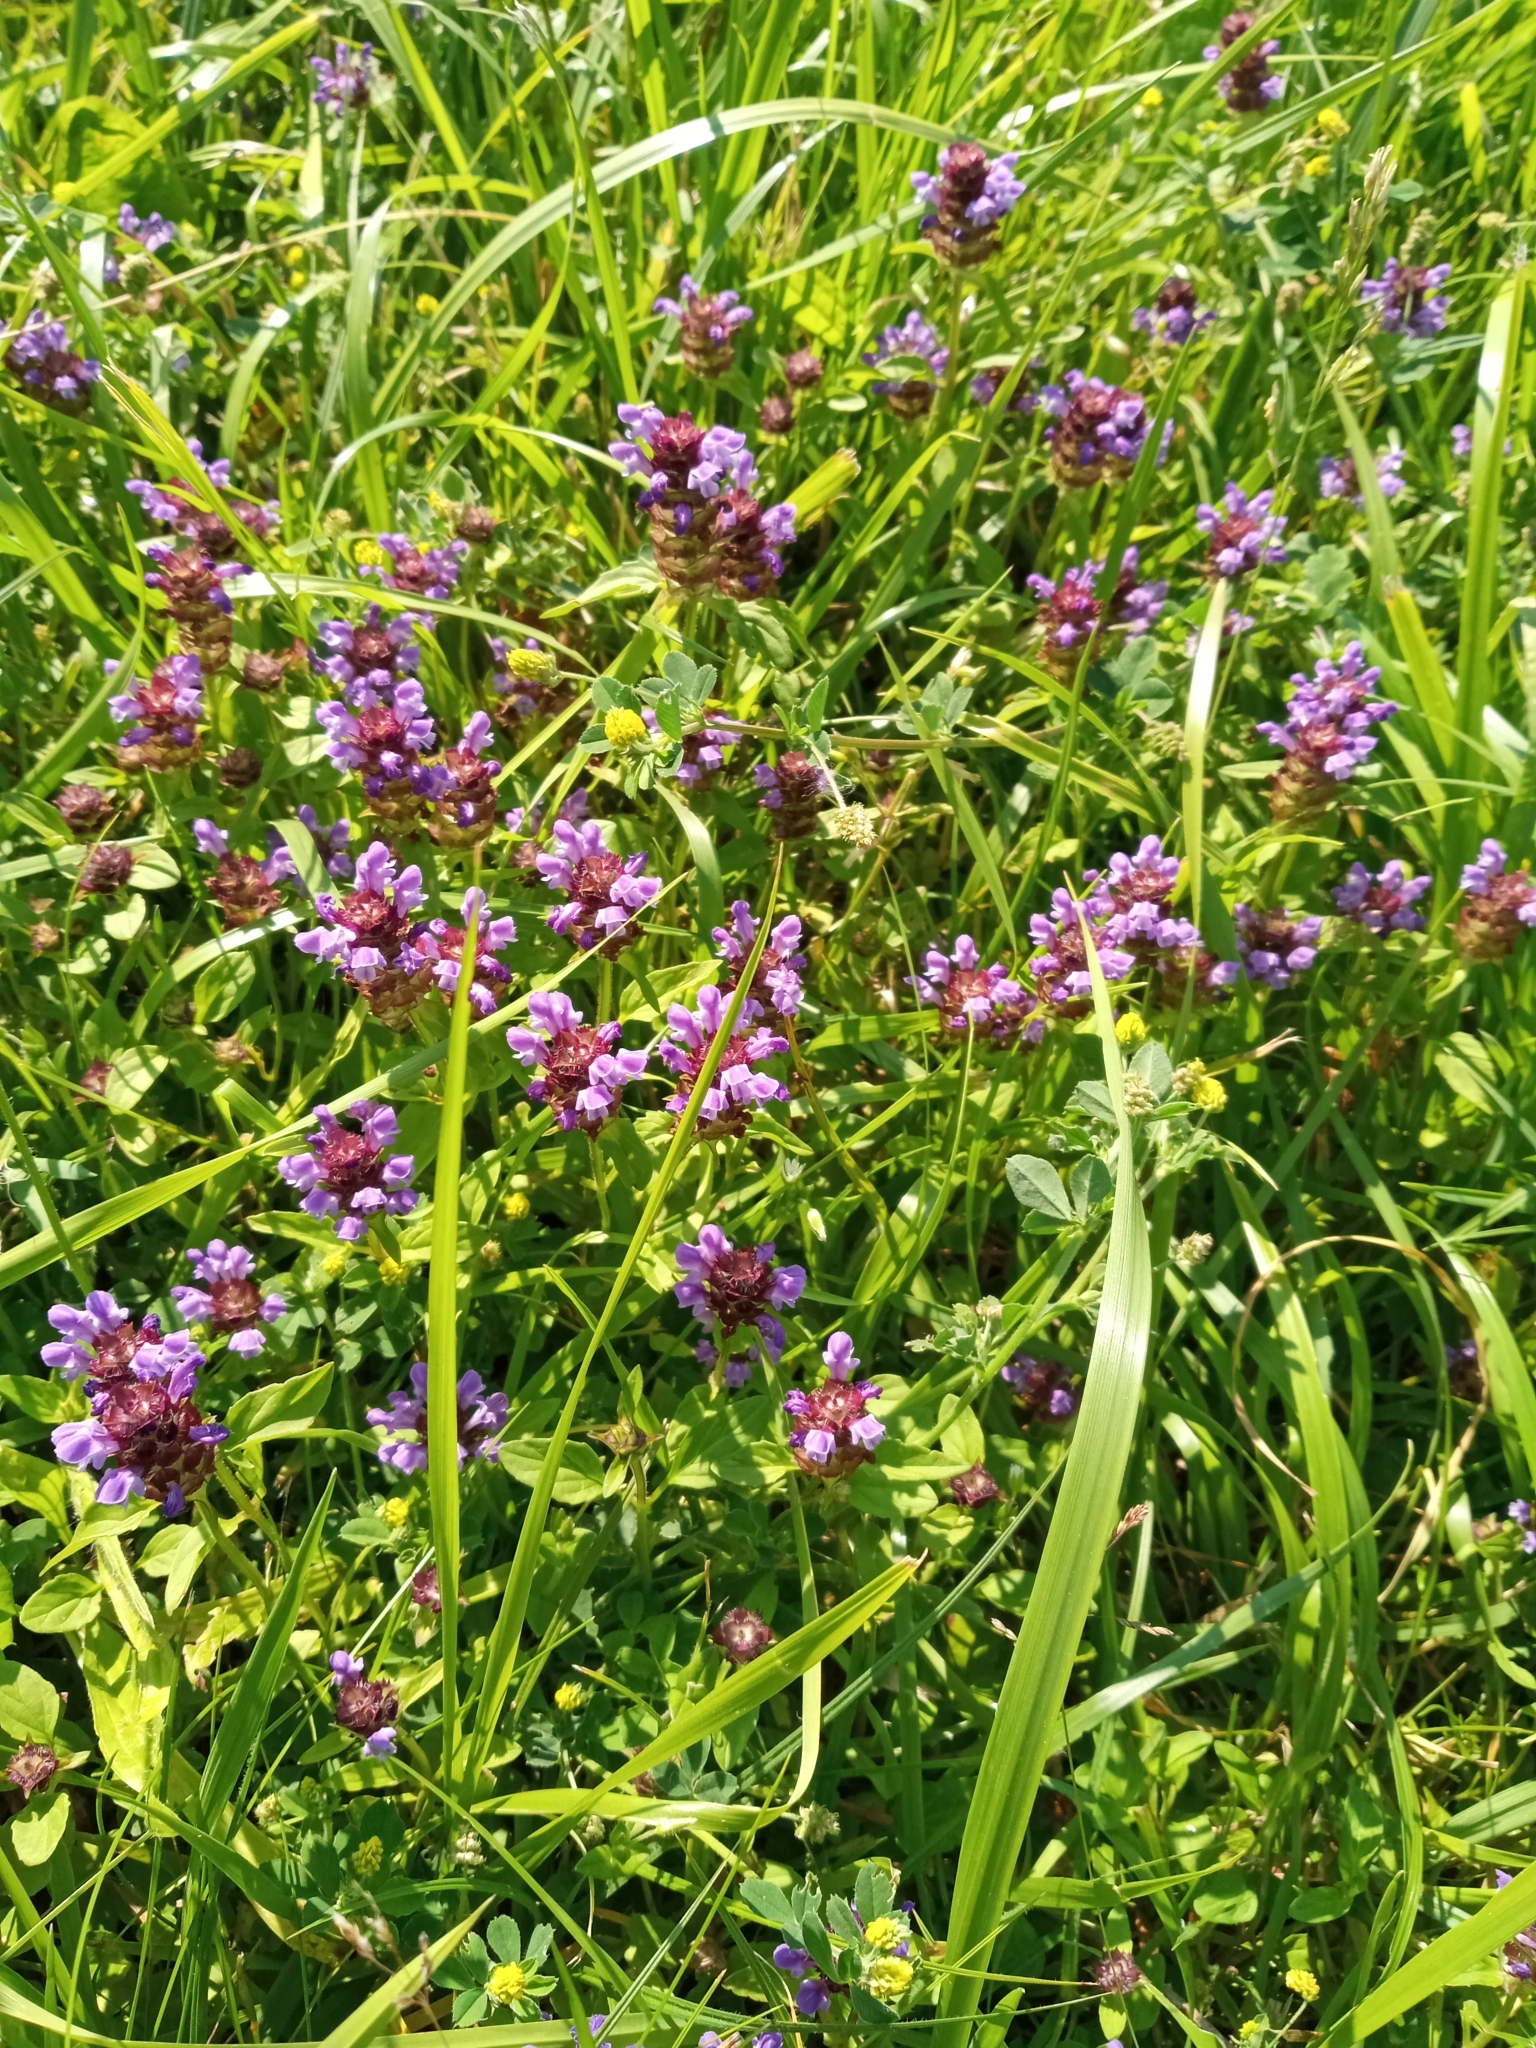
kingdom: Plantae
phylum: Tracheophyta
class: Magnoliopsida
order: Lamiales
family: Lamiaceae
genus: Prunella
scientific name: Prunella vulgaris
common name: Heal-all
